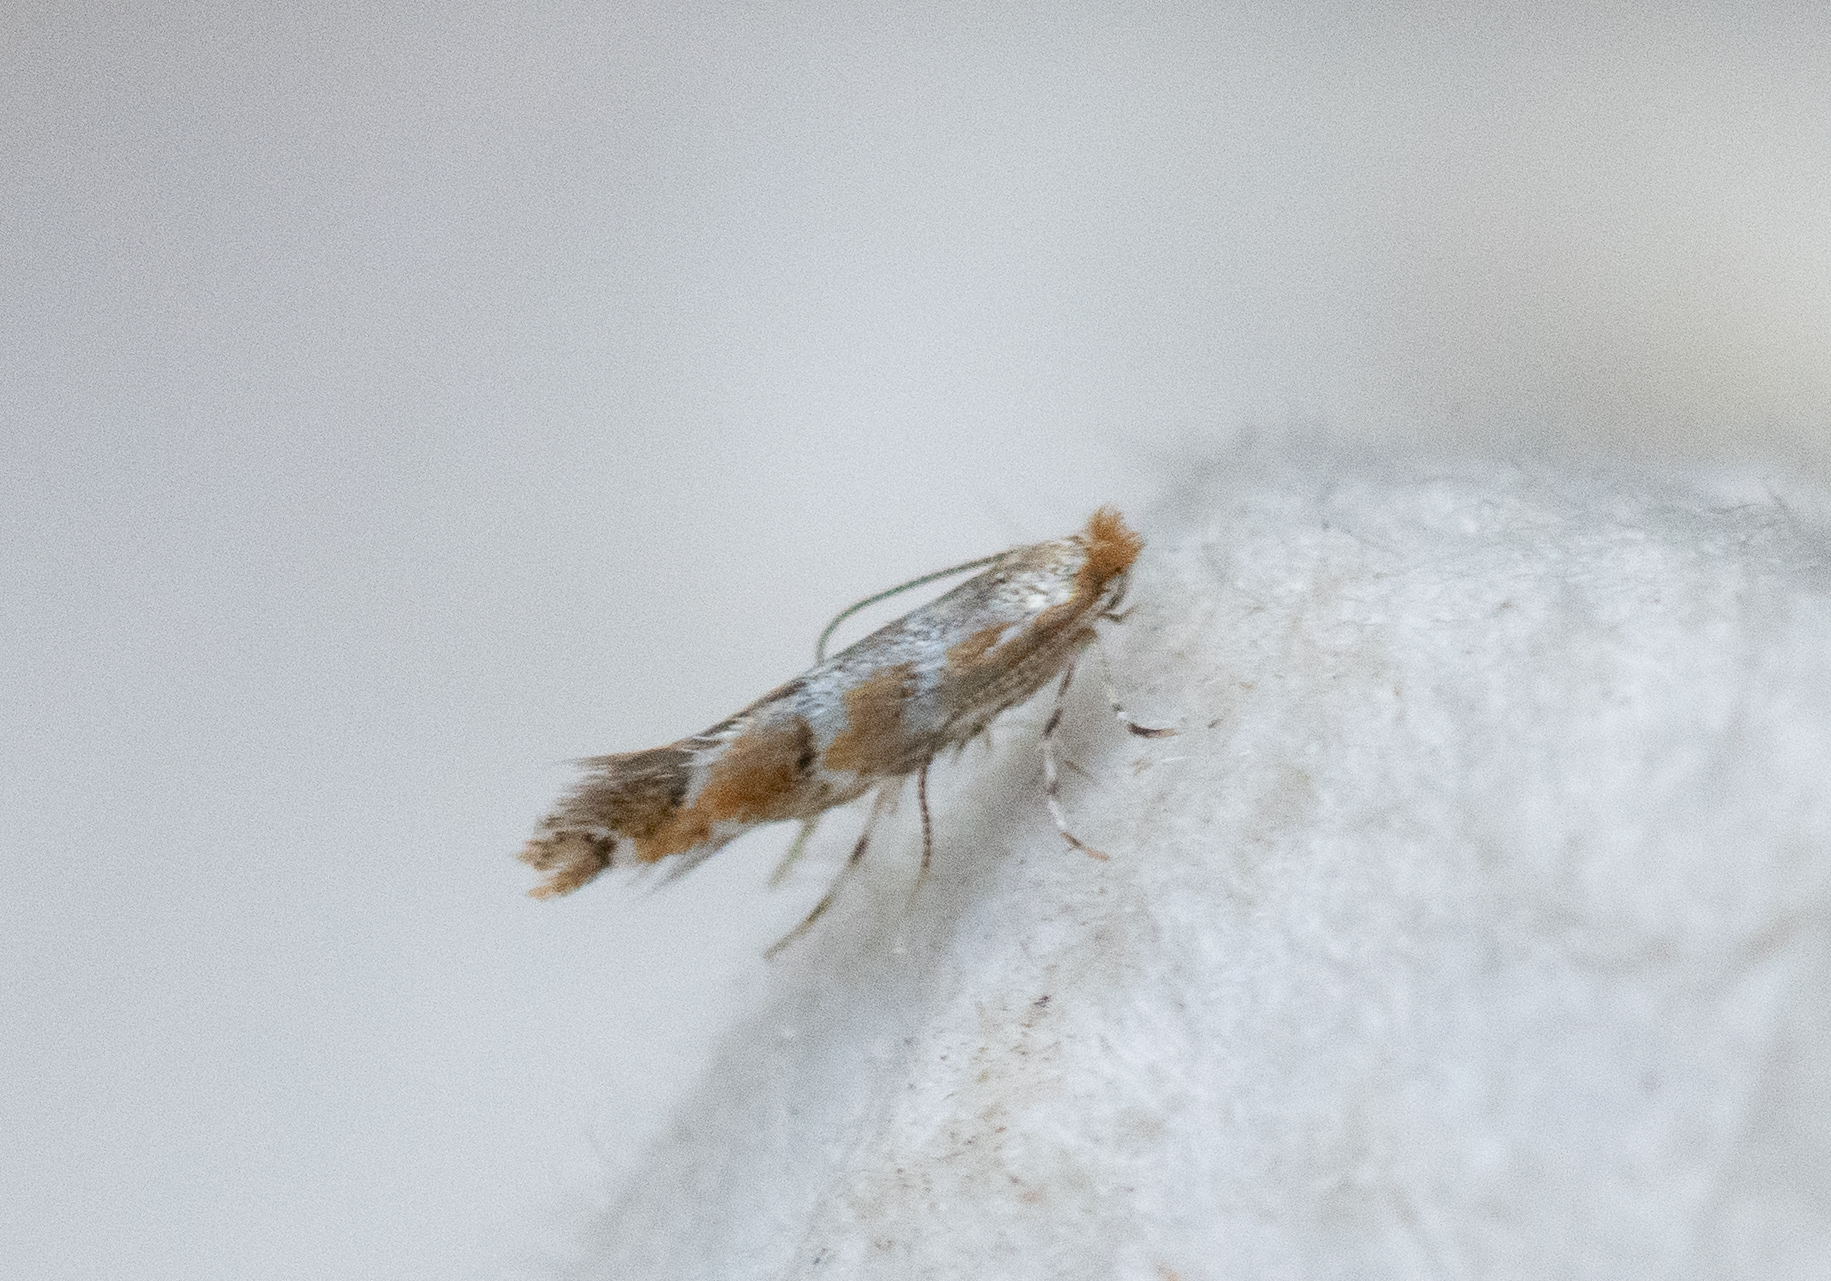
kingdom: Animalia
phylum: Arthropoda
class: Insecta
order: Lepidoptera
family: Gracillariidae
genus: Cameraria
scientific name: Cameraria ohridella
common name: Horse-chestnut leaf-miner
